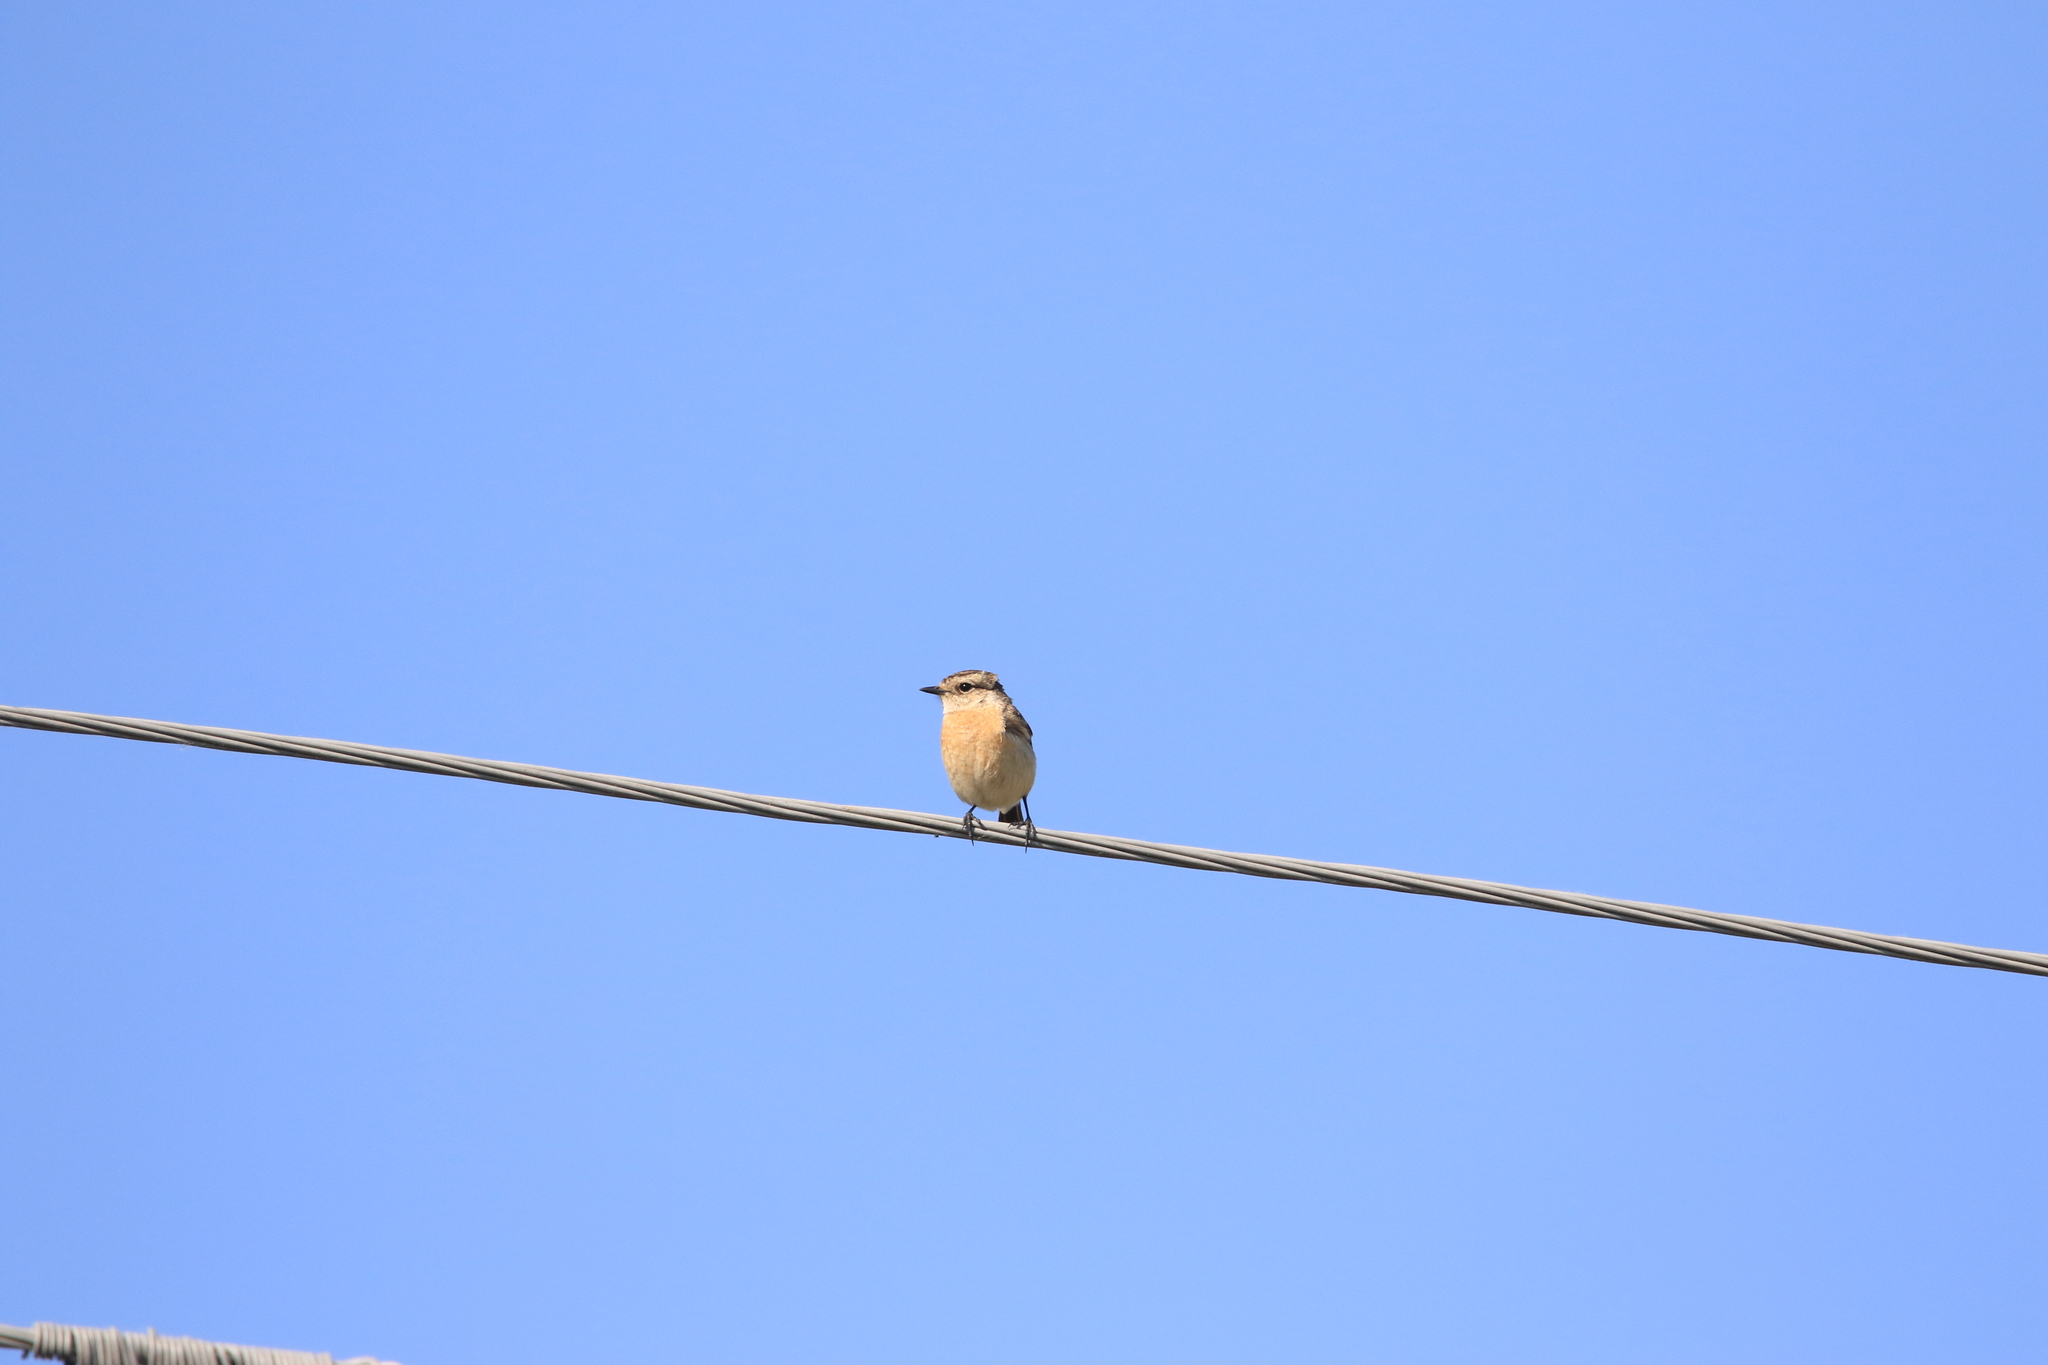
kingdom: Animalia
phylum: Chordata
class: Aves
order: Passeriformes
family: Muscicapidae
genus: Saxicola
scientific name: Saxicola maurus
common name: Siberian stonechat
